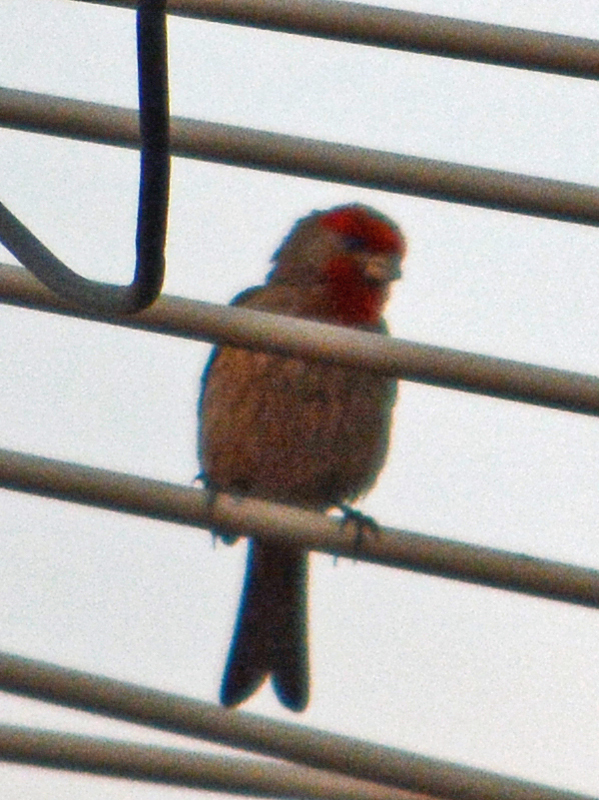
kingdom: Animalia
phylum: Chordata
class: Aves
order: Passeriformes
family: Fringillidae
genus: Haemorhous
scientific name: Haemorhous mexicanus
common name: House finch
